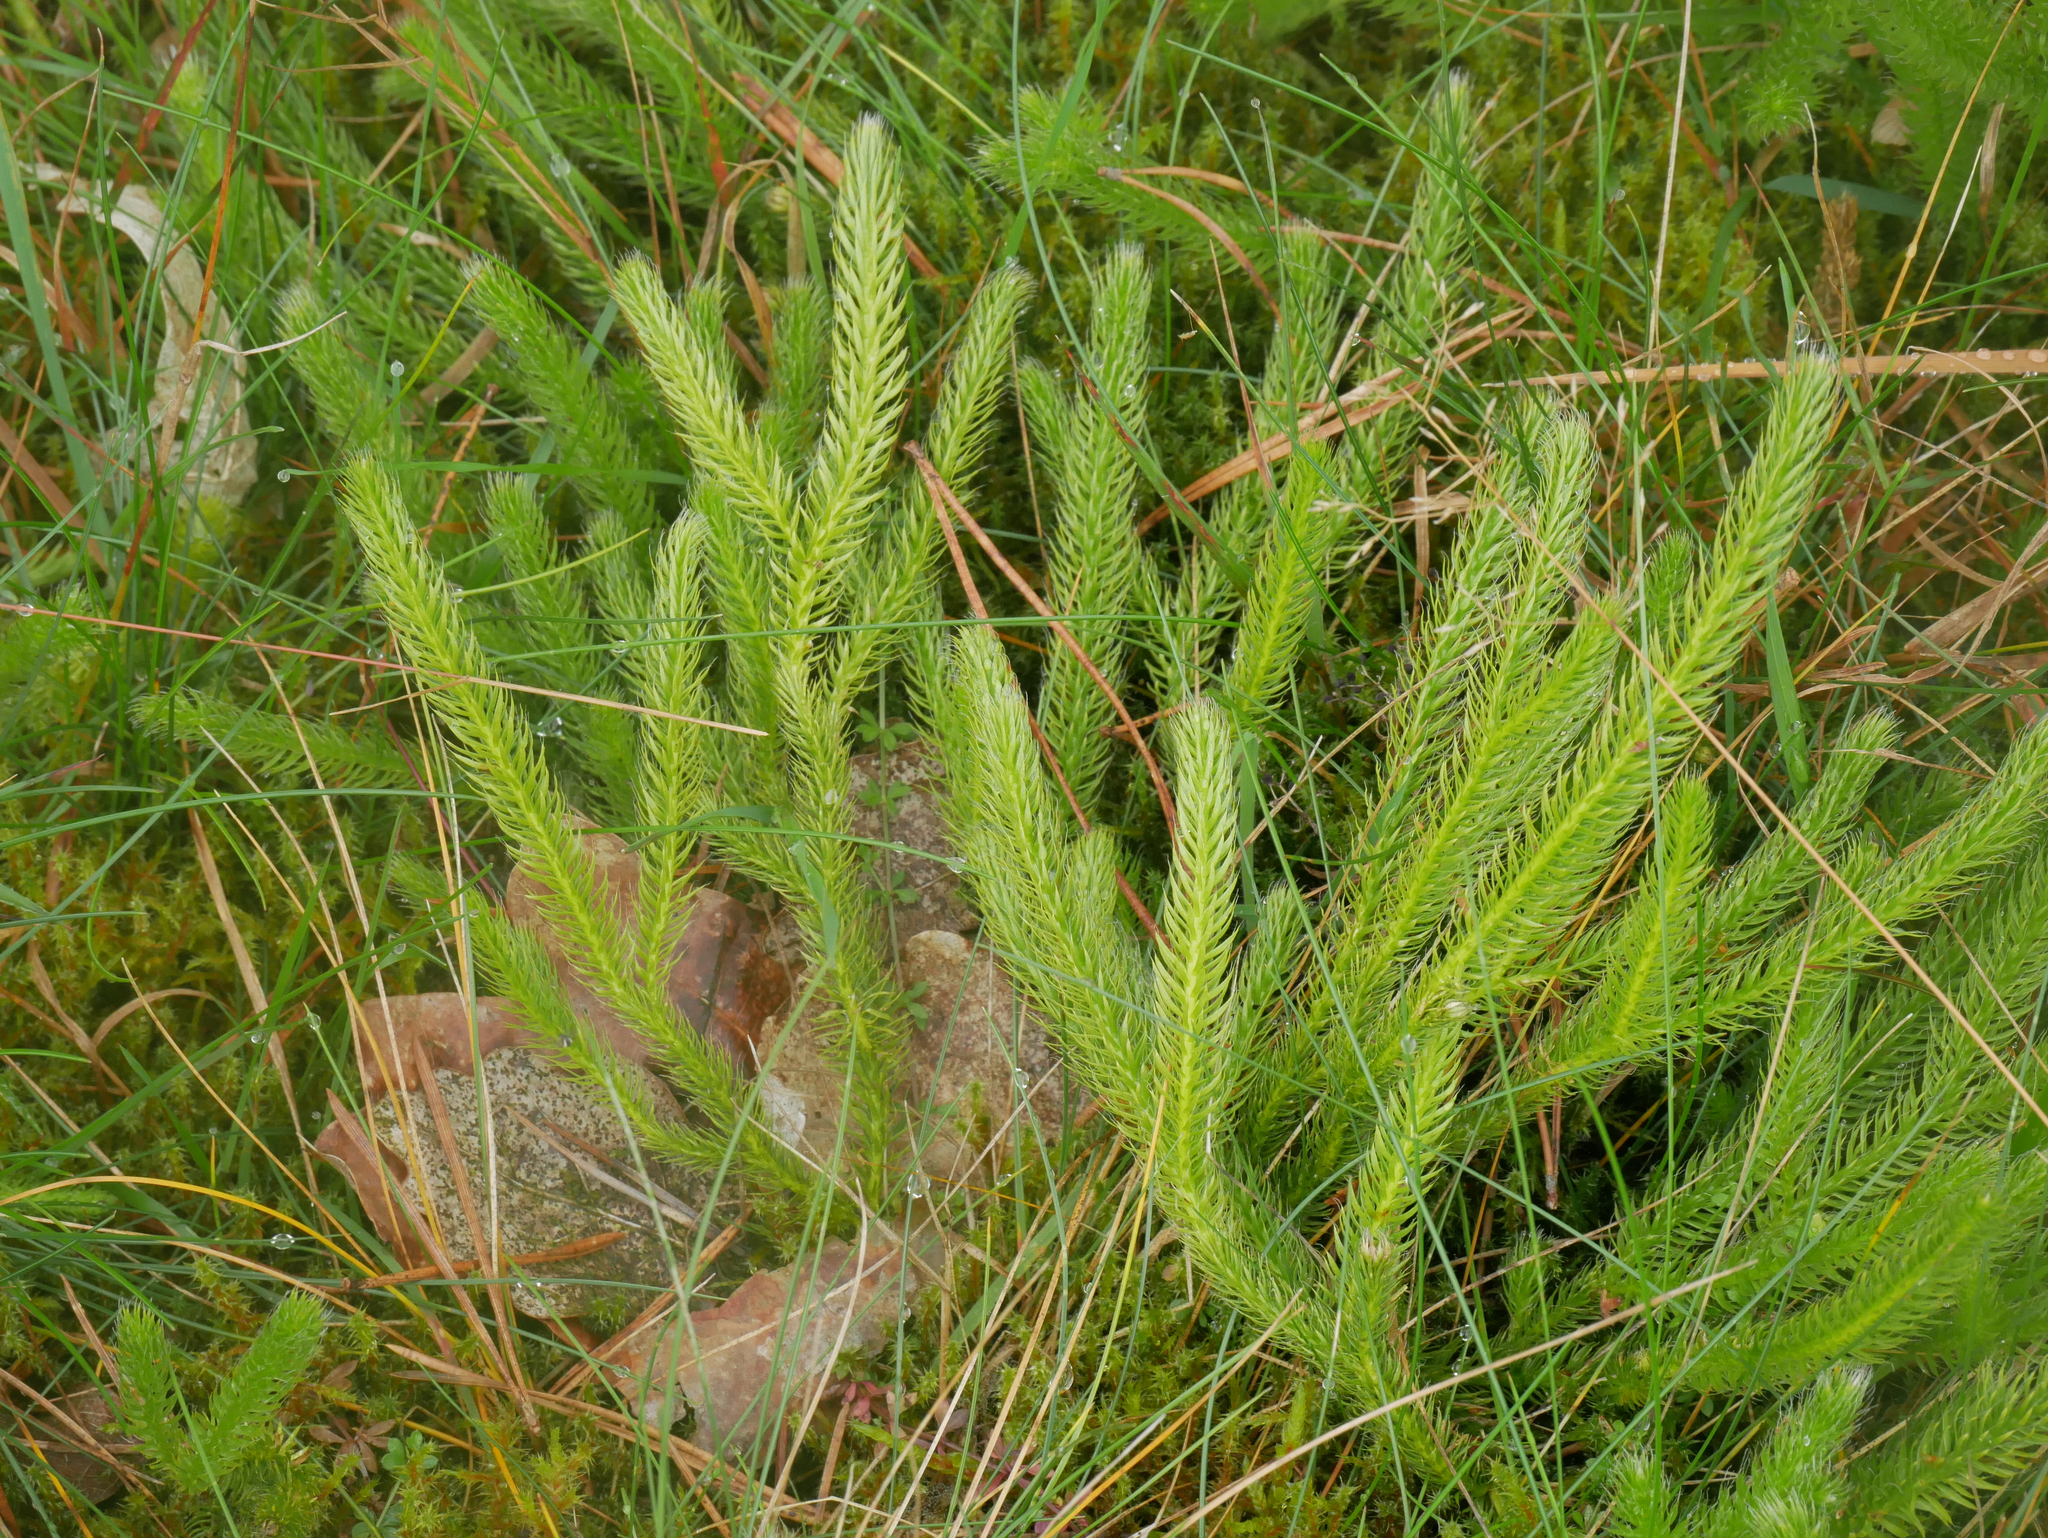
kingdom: Plantae
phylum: Tracheophyta
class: Lycopodiopsida
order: Lycopodiales
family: Lycopodiaceae
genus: Lycopodium
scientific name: Lycopodium clavatum
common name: Stag's-horn clubmoss
